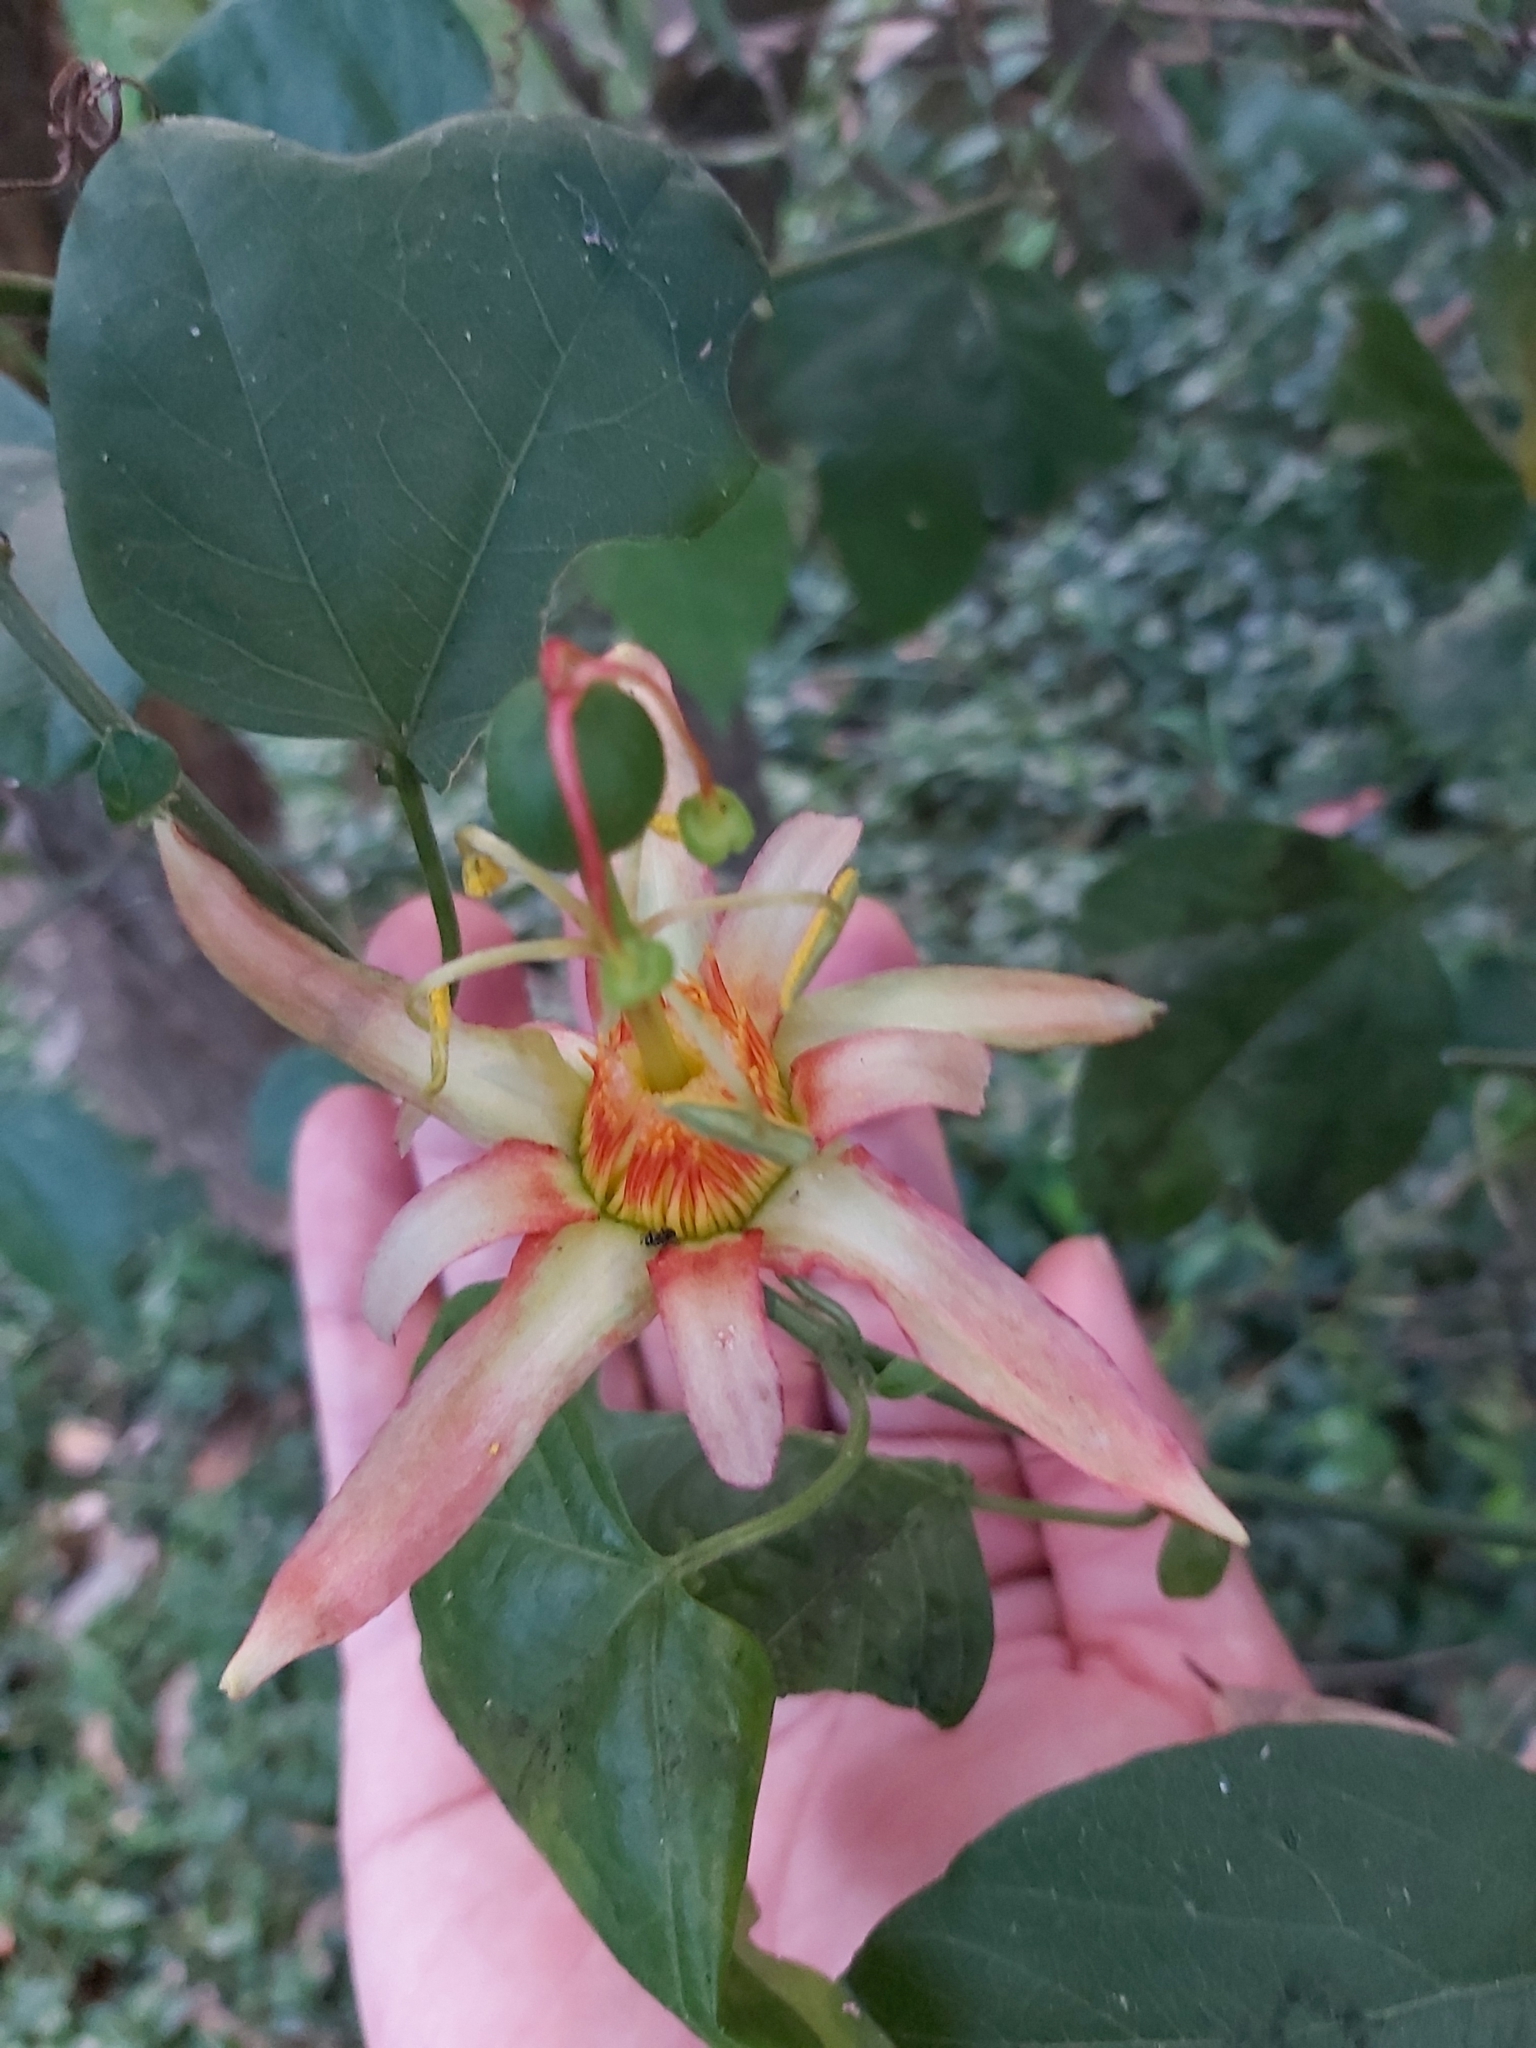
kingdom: Plantae
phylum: Tracheophyta
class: Magnoliopsida
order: Malpighiales
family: Passifloraceae
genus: Passiflora
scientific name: Passiflora herbertiana
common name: Yellow passionflower
